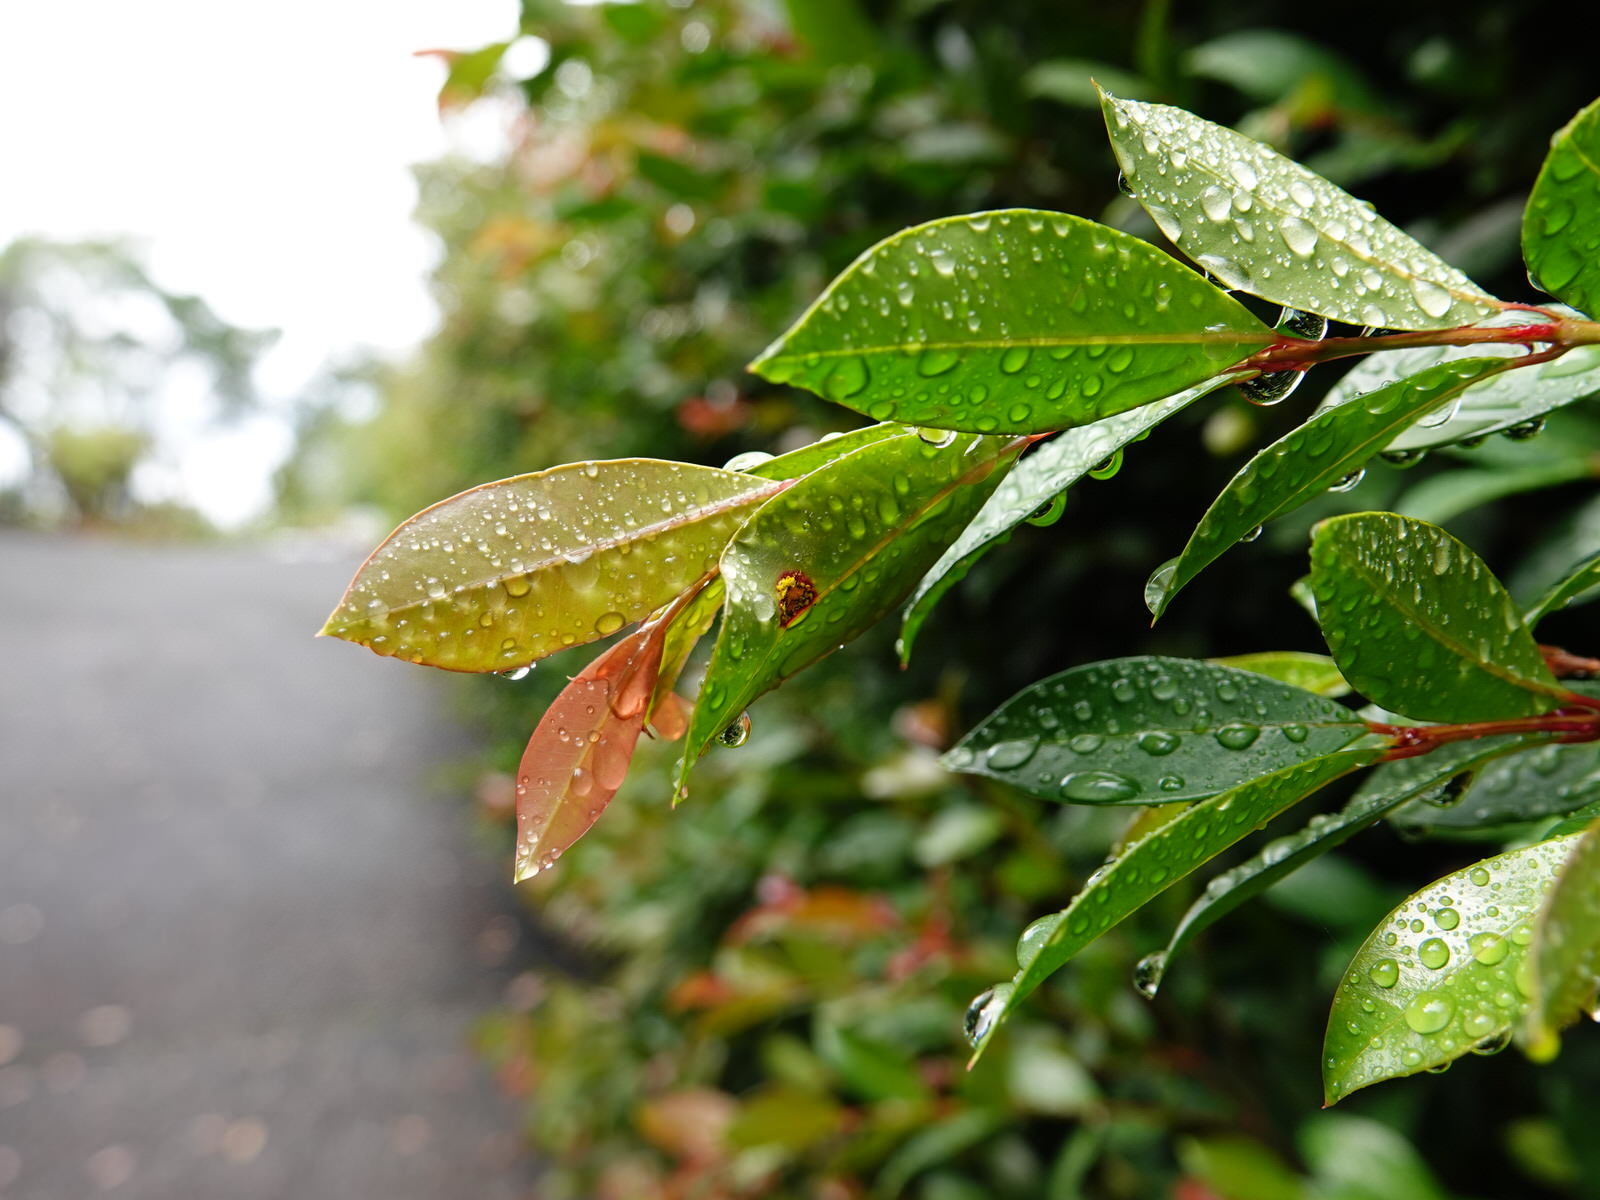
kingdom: Fungi
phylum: Basidiomycota
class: Pucciniomycetes
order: Pucciniales
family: Sphaerophragmiaceae
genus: Austropuccinia
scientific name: Austropuccinia psidii
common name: Myrtle rust
